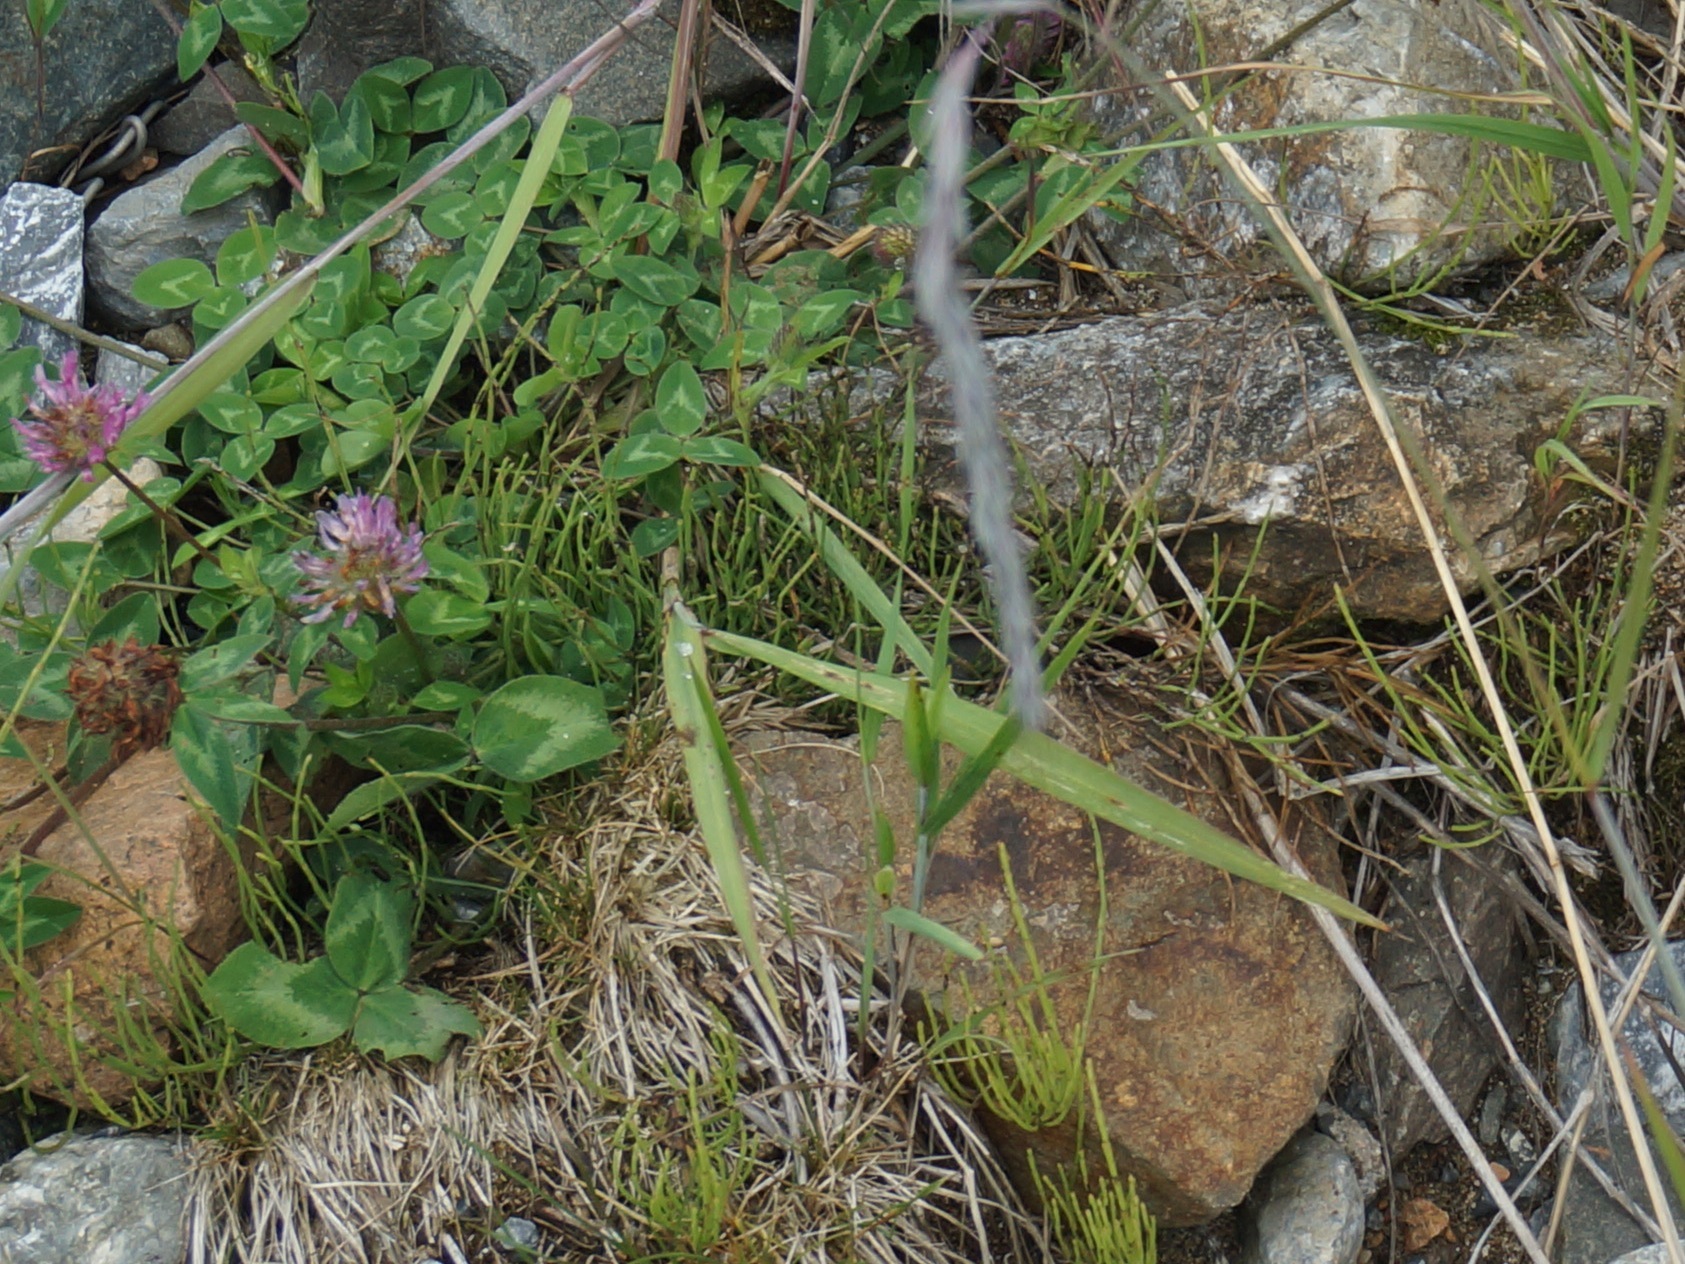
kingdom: Plantae
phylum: Tracheophyta
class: Magnoliopsida
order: Fabales
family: Fabaceae
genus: Trifolium
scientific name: Trifolium pratense
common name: Red clover
